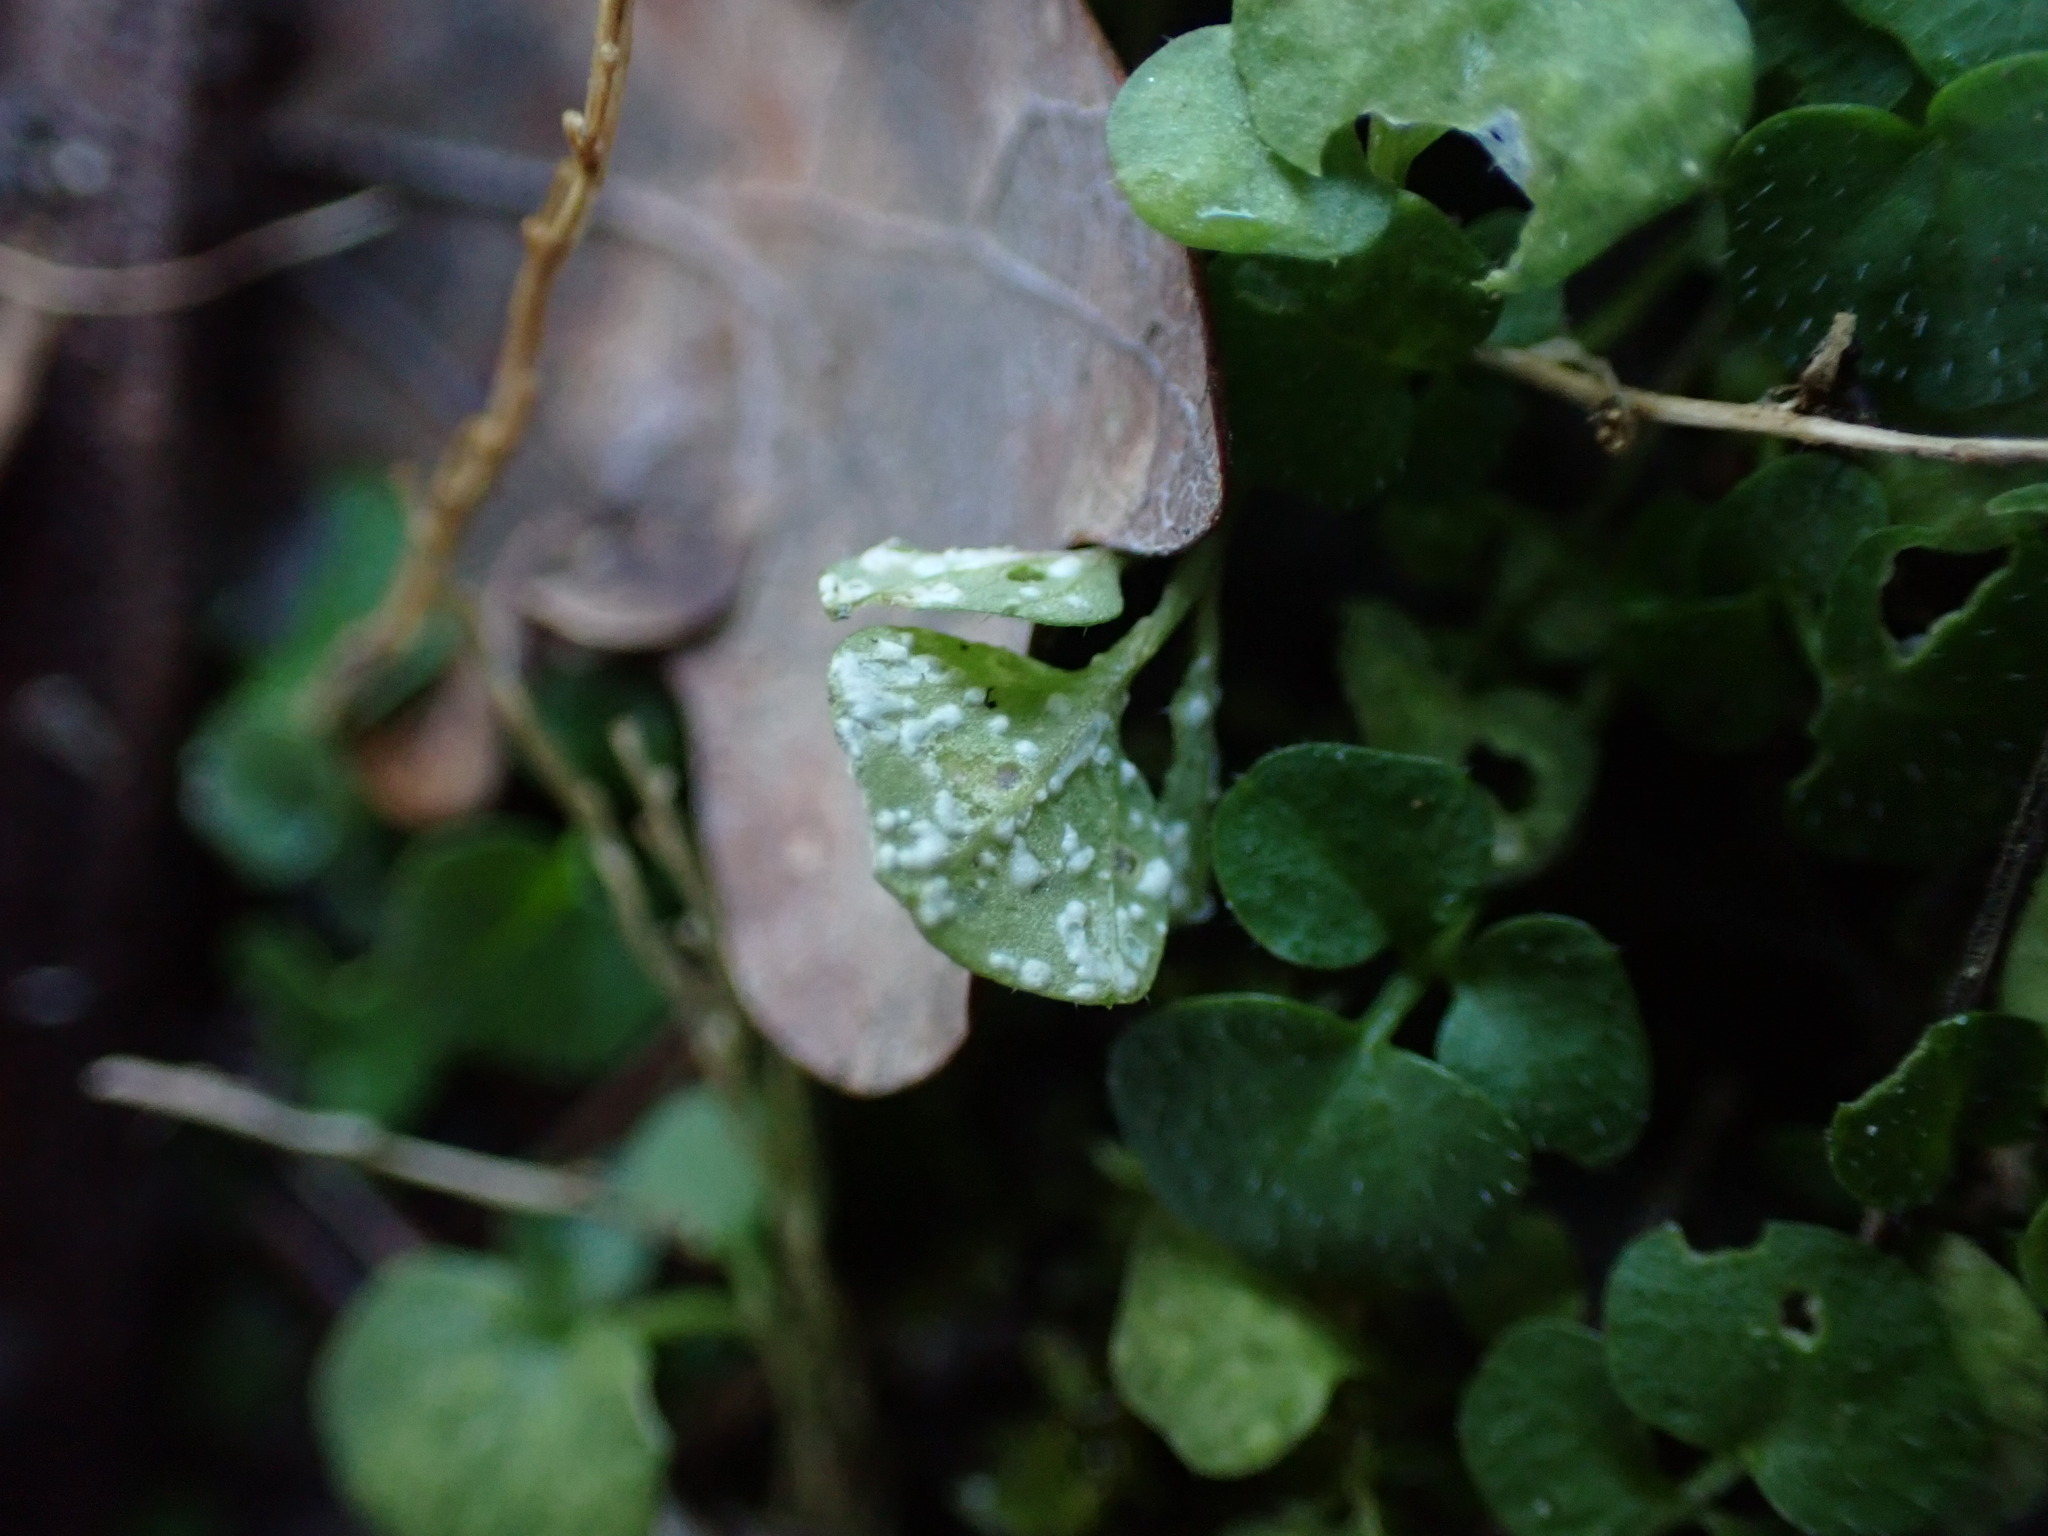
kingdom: Chromista
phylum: Oomycota
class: Peronosporea
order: Albuginales
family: Albuginaceae
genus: Albugo
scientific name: Albugo hohenheimia
